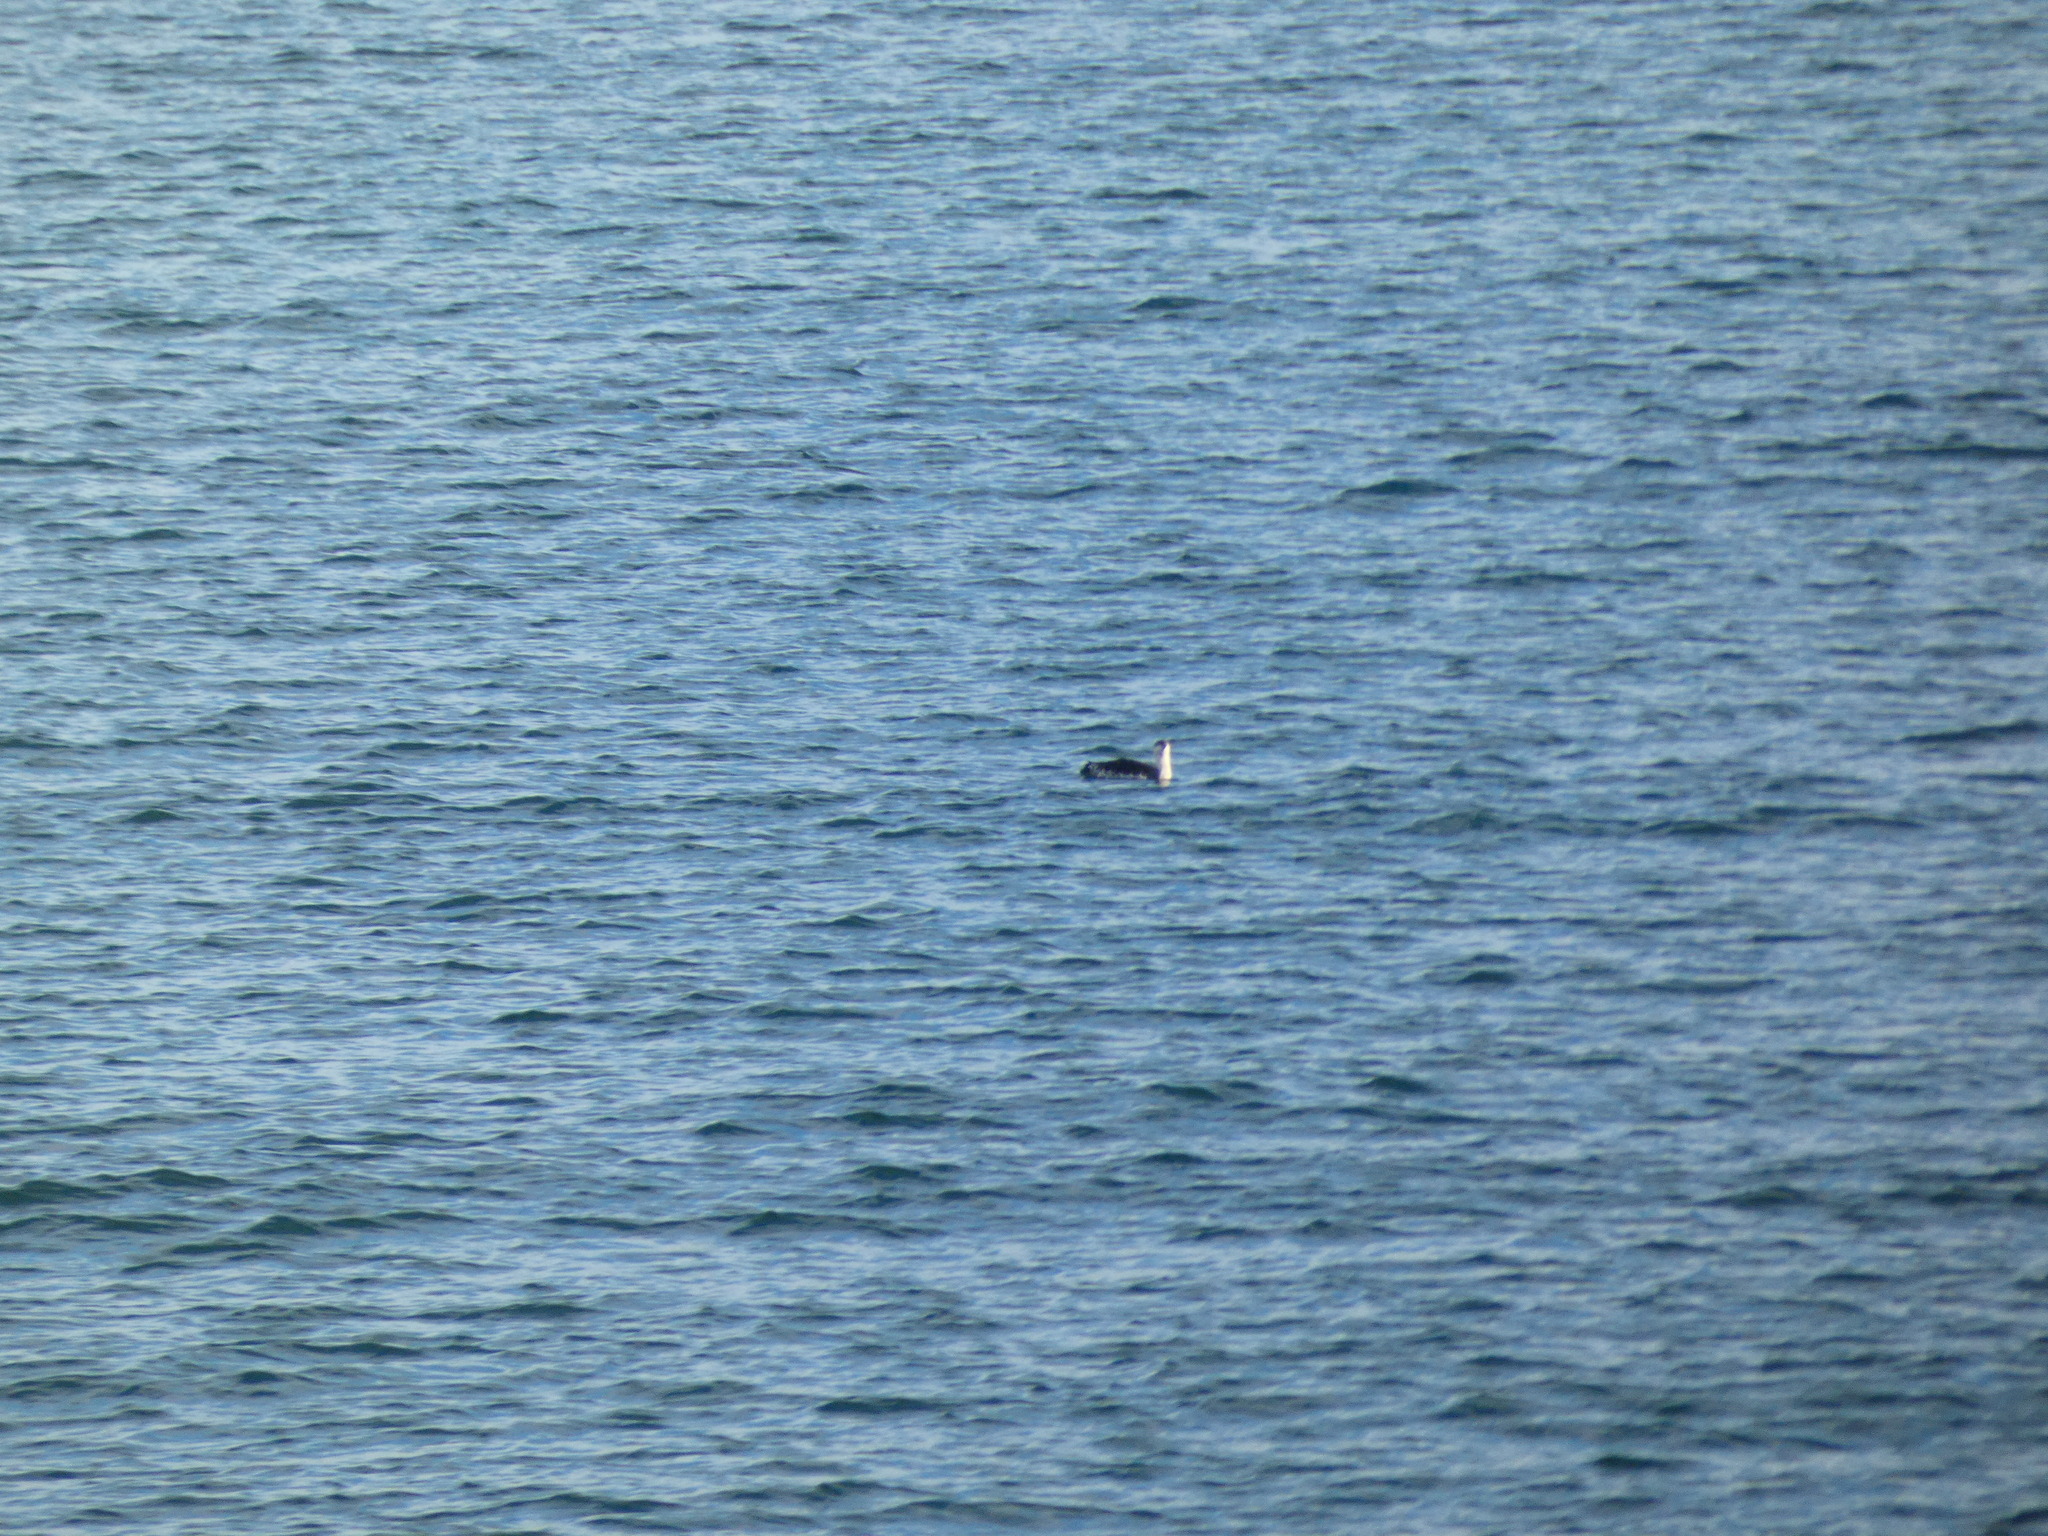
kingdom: Animalia
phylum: Chordata
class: Aves
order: Gaviiformes
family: Gaviidae
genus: Gavia
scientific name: Gavia stellata
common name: Red-throated loon
